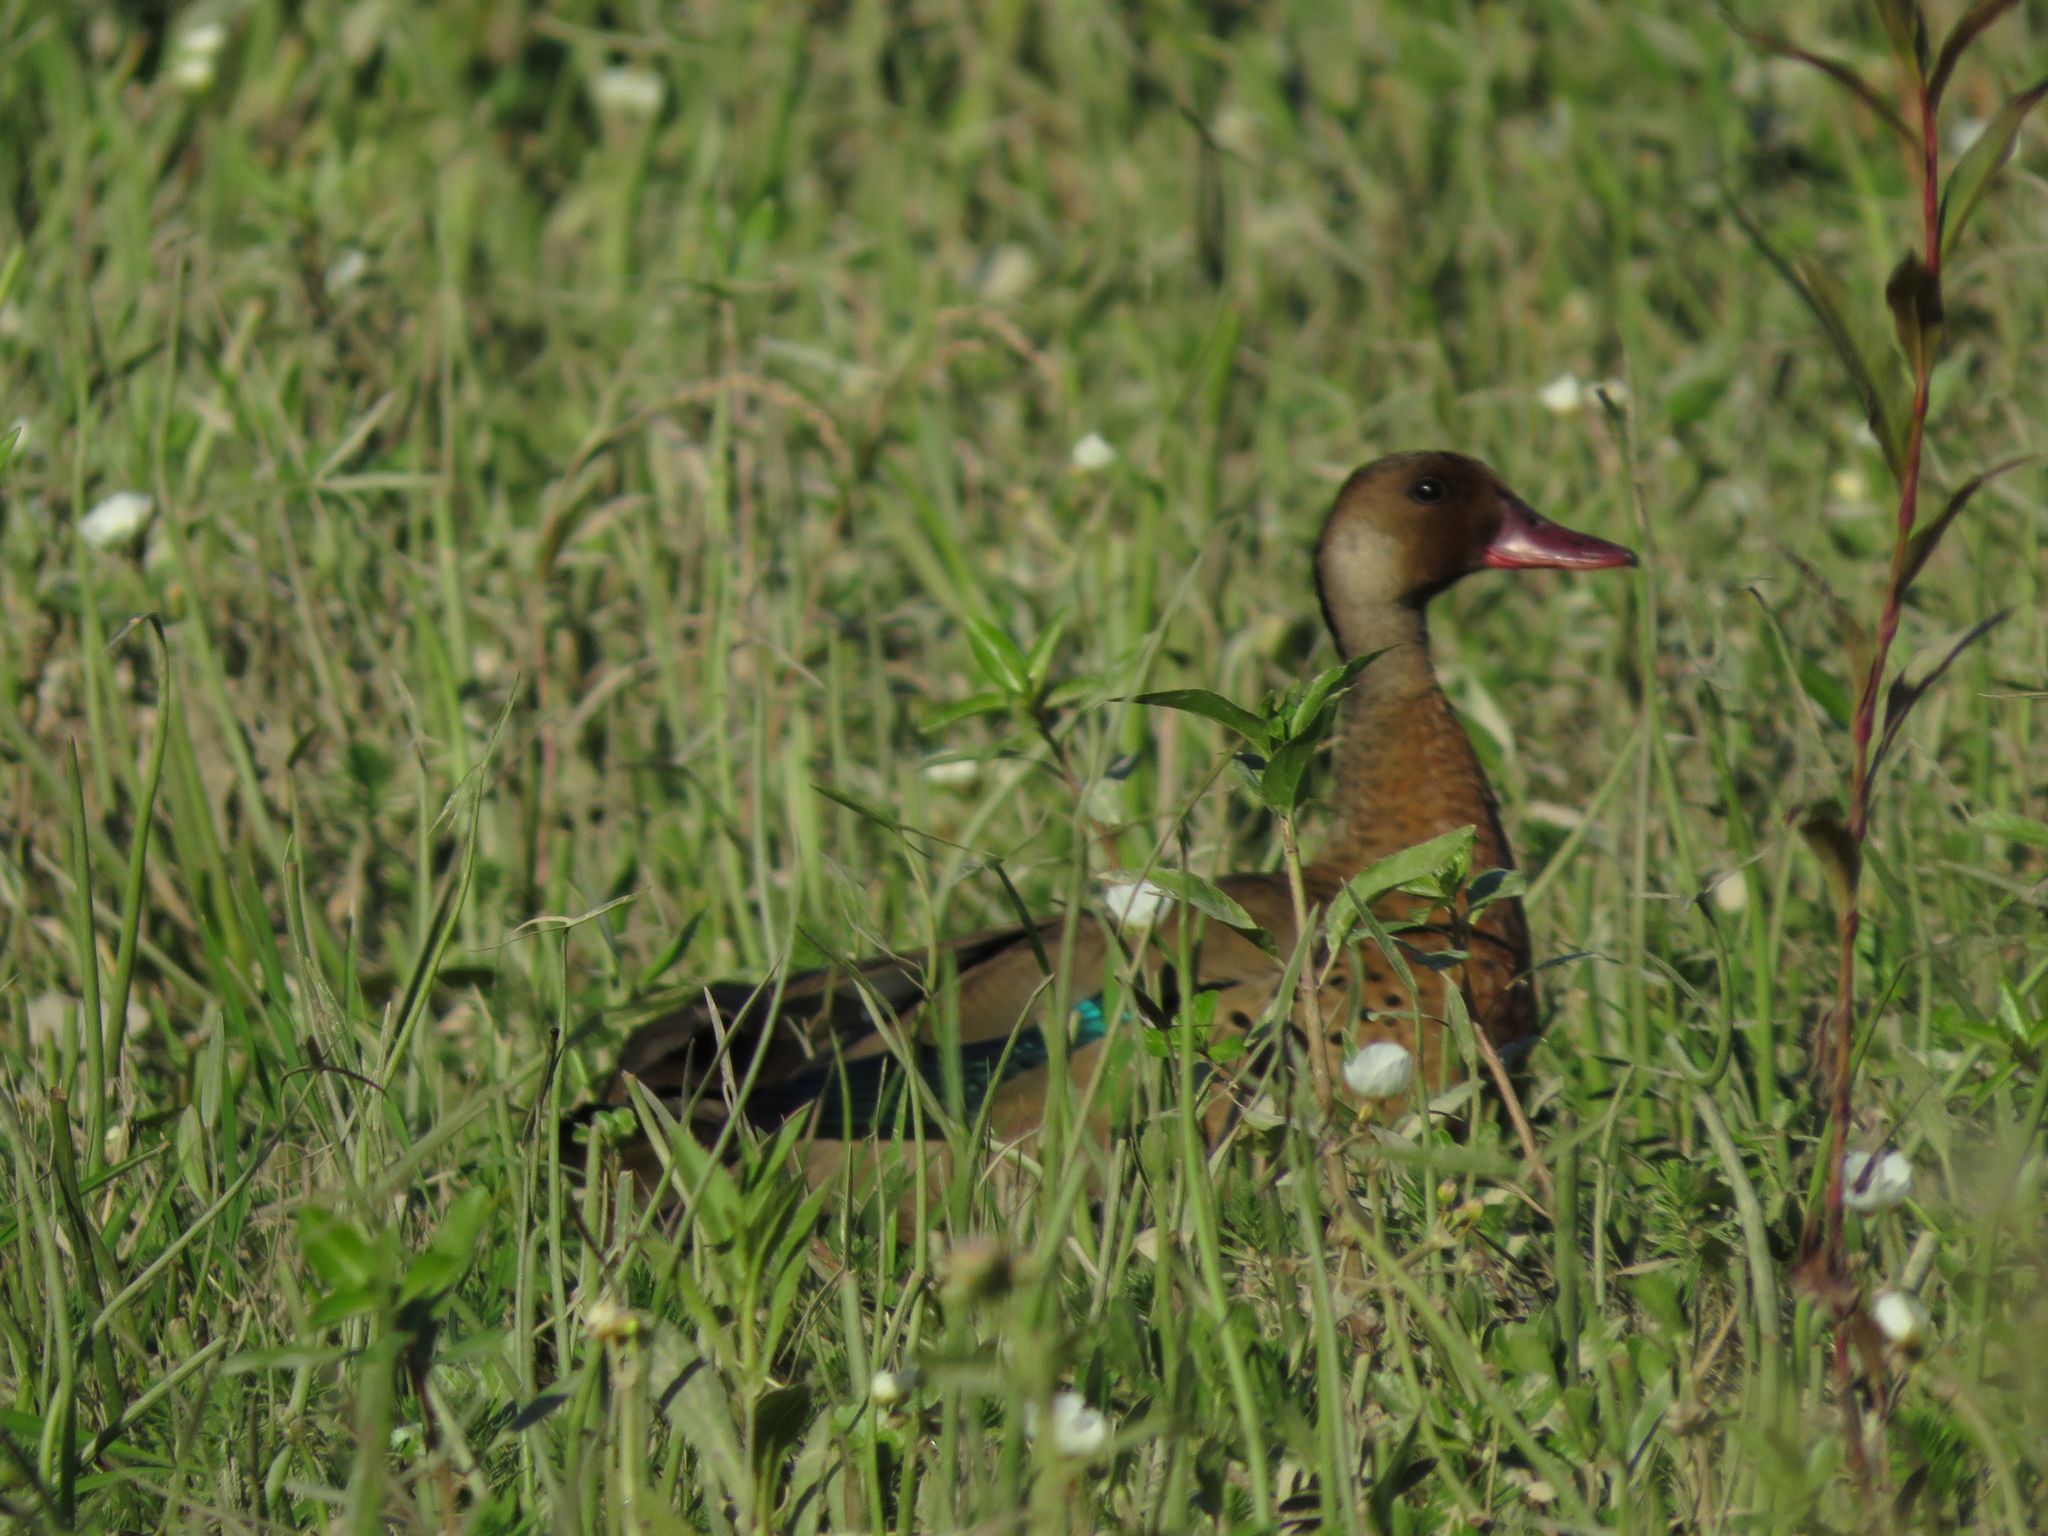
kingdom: Animalia
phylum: Chordata
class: Aves
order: Anseriformes
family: Anatidae
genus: Amazonetta
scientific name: Amazonetta brasiliensis
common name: Brazilian teal
